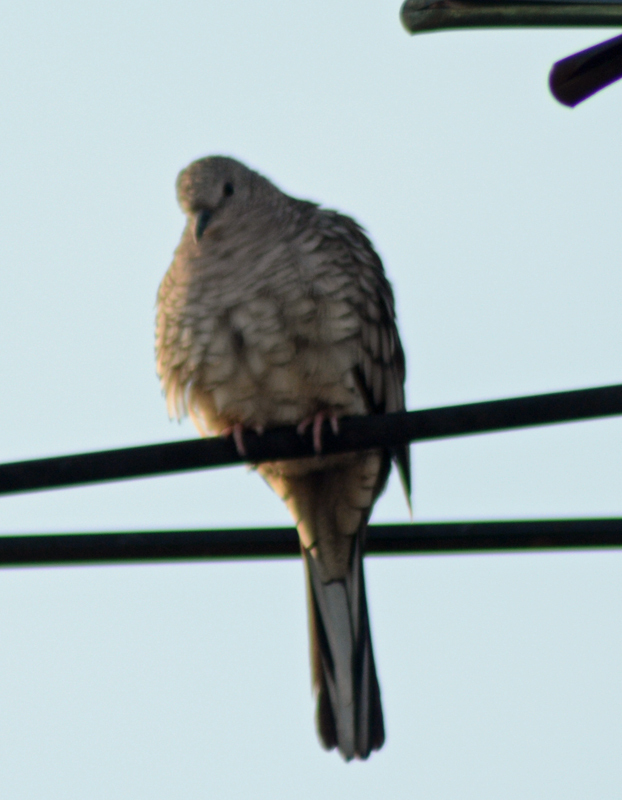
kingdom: Animalia
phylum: Chordata
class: Aves
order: Columbiformes
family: Columbidae
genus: Columbina
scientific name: Columbina inca
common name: Inca dove
